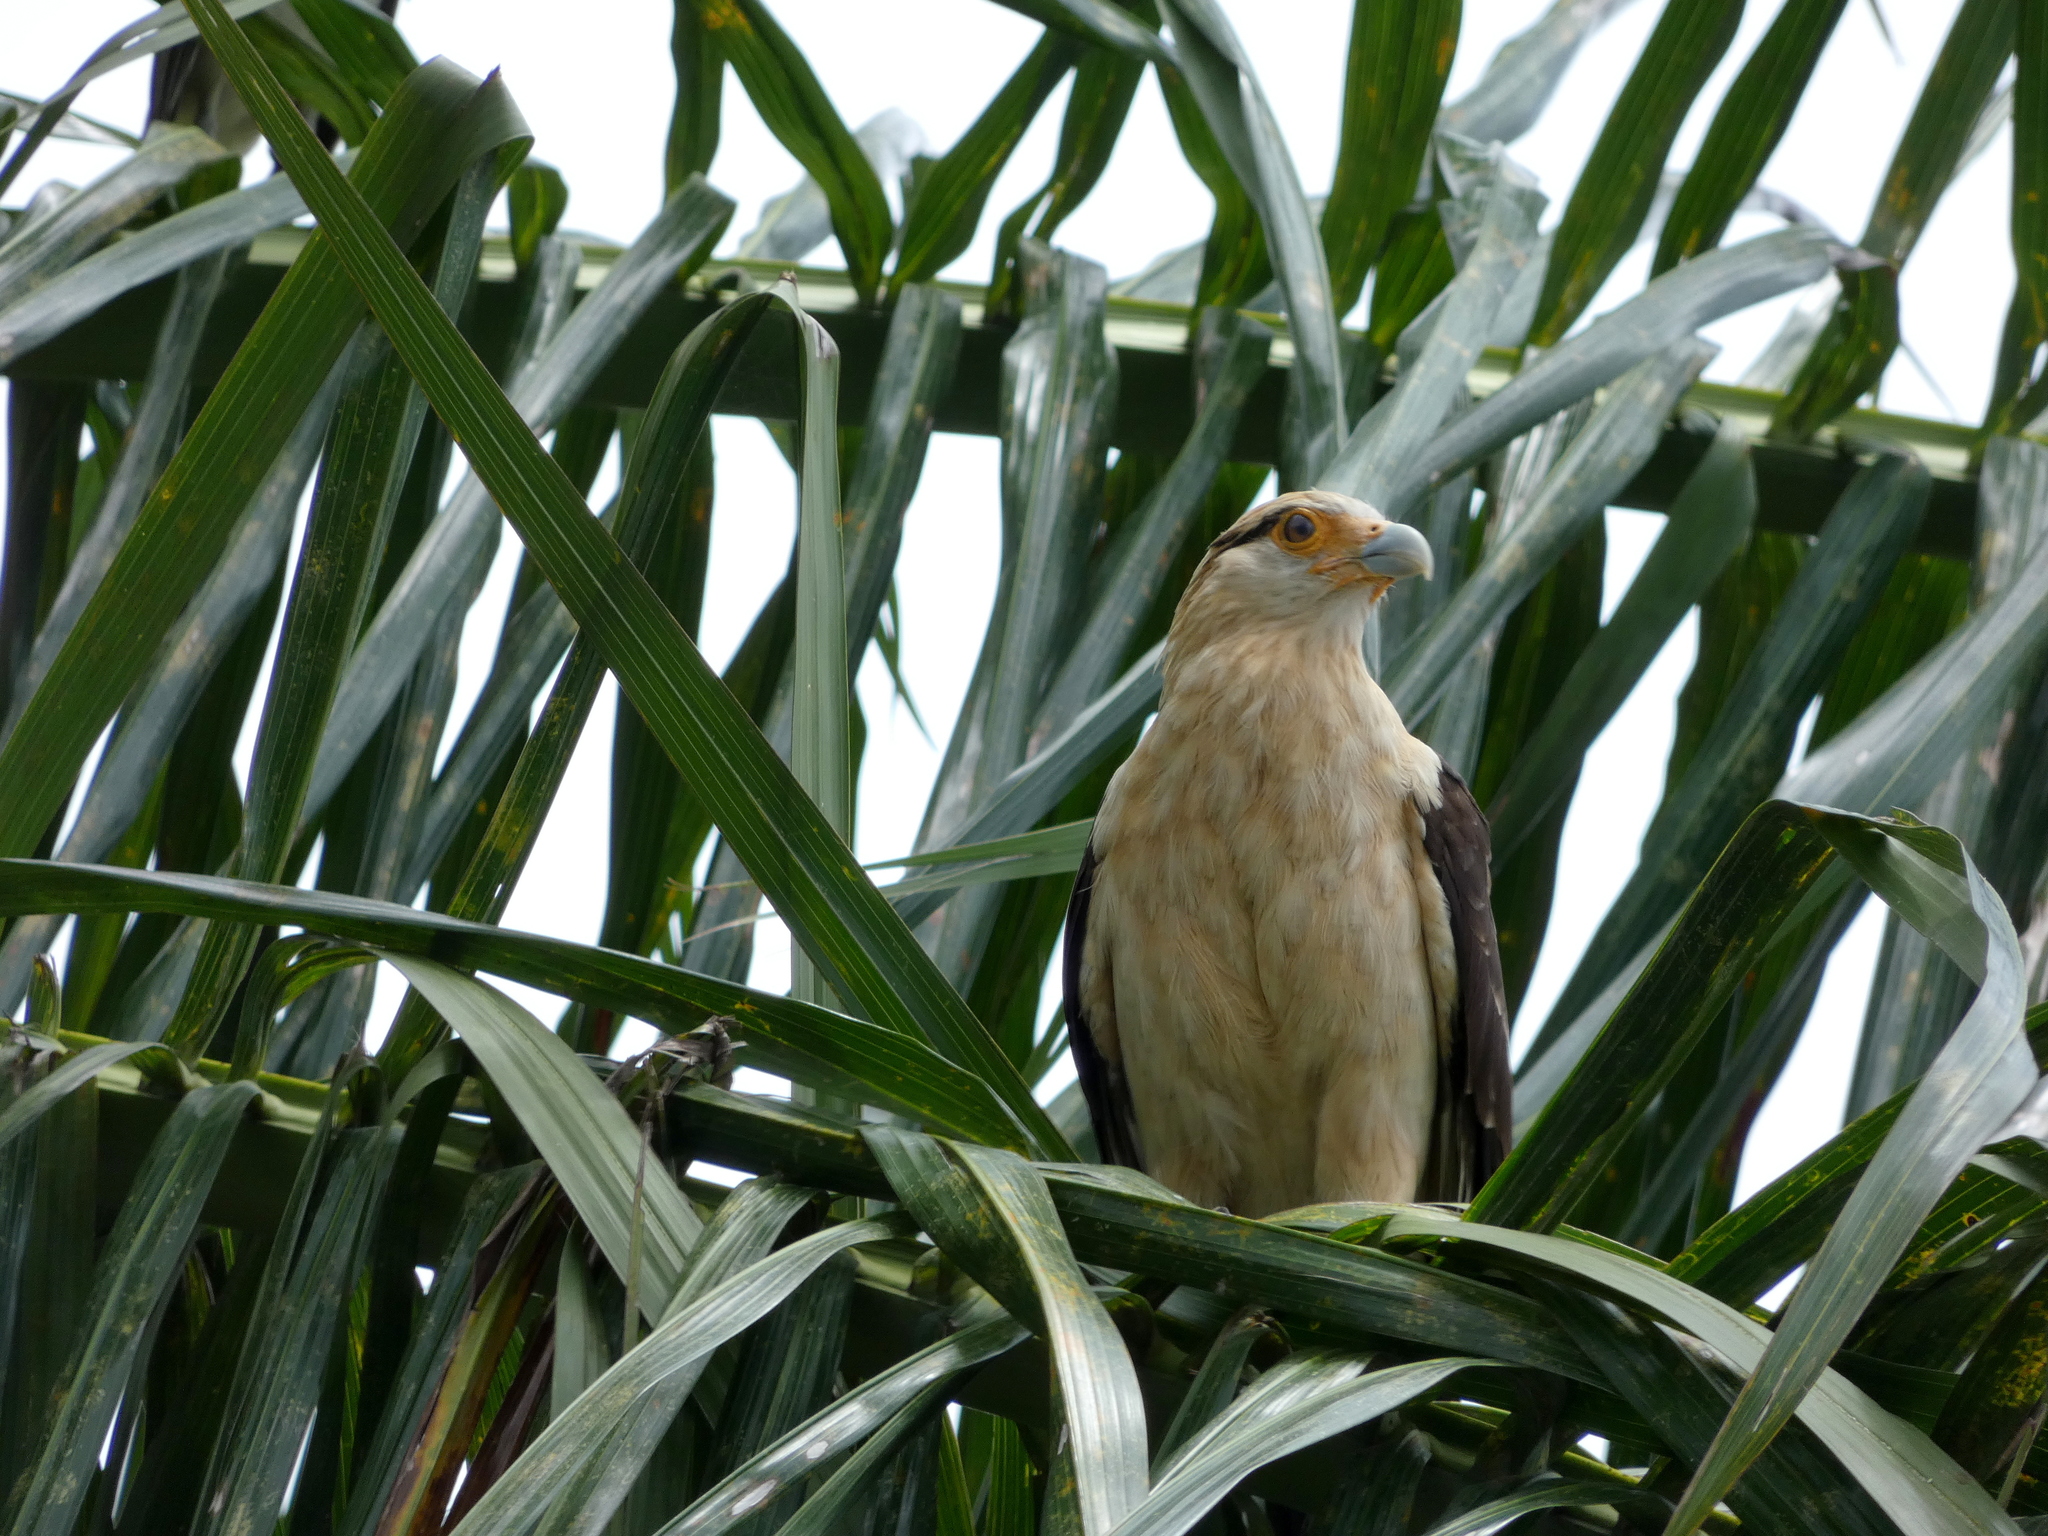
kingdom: Animalia
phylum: Chordata
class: Aves
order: Falconiformes
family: Falconidae
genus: Daptrius
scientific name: Daptrius
